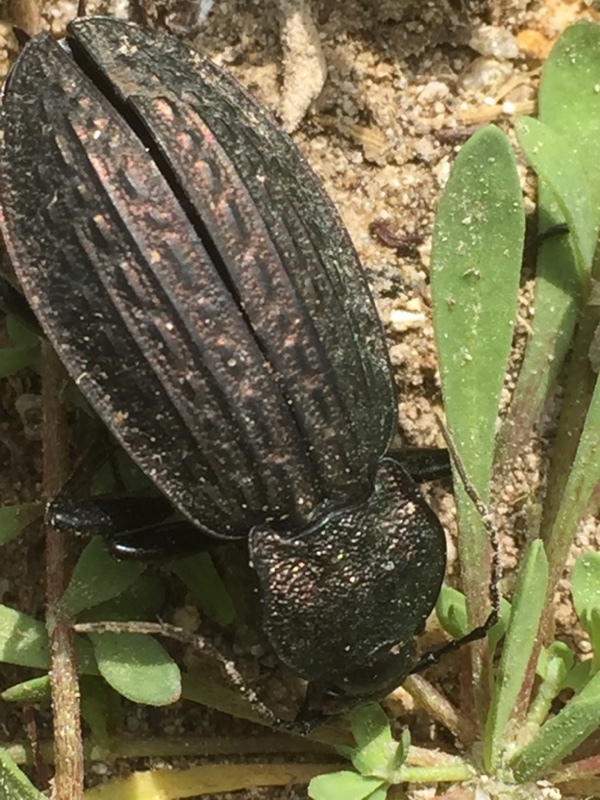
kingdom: Animalia
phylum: Arthropoda
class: Insecta
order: Coleoptera
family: Carabidae
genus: Carabus
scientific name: Carabus rugosus
